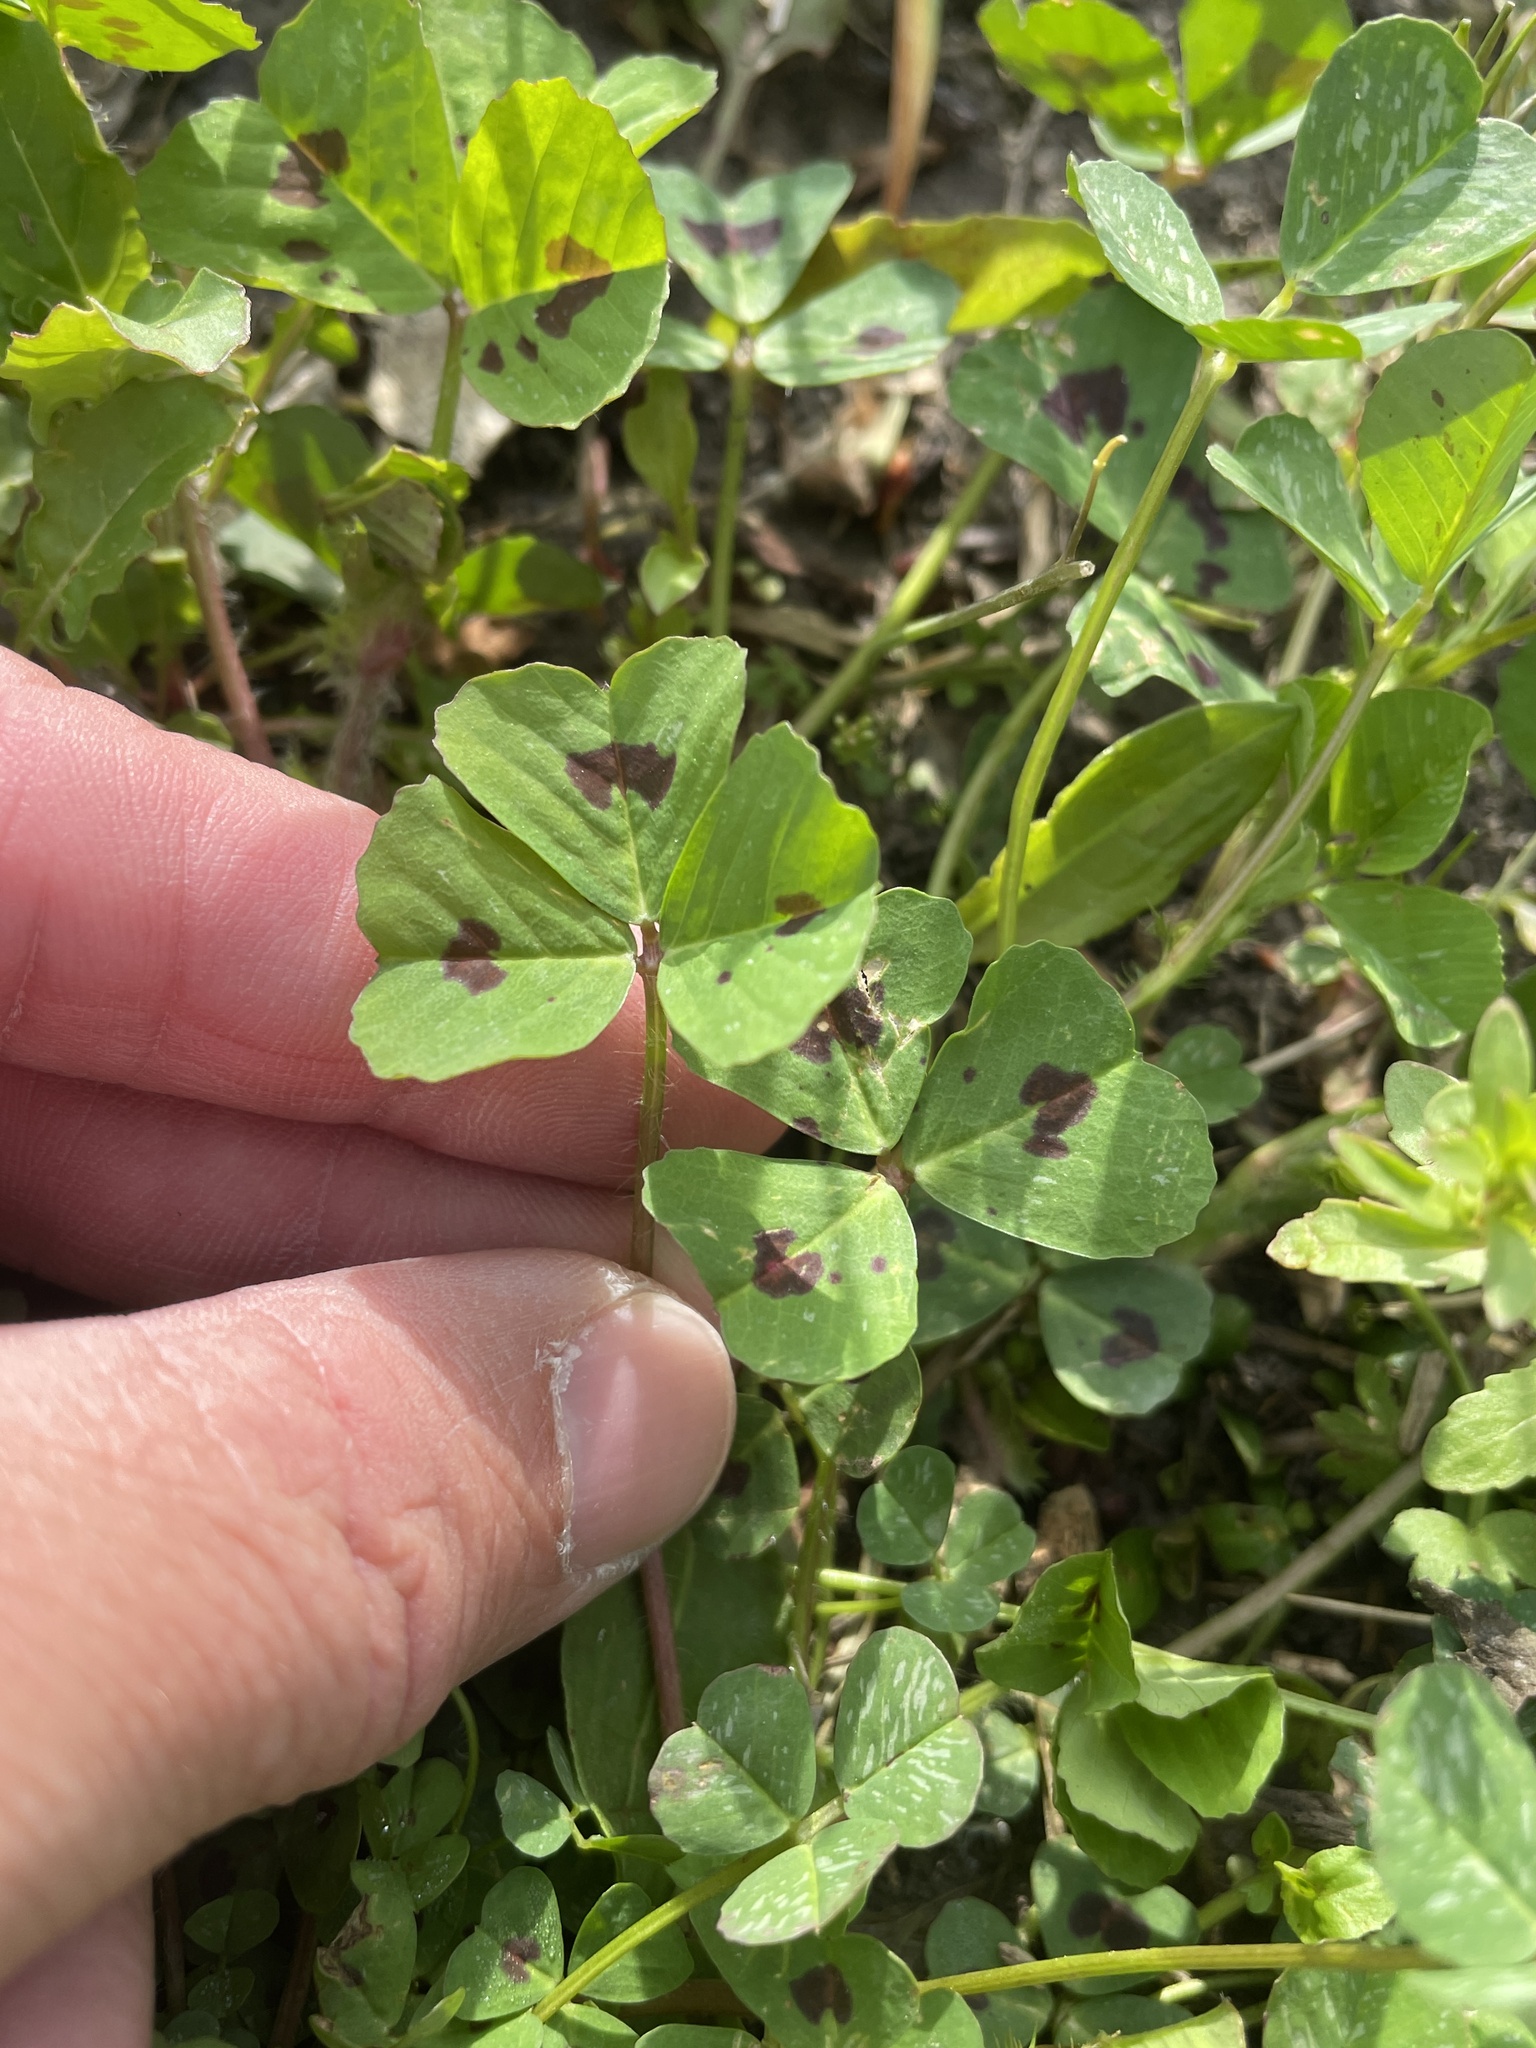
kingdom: Plantae
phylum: Tracheophyta
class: Magnoliopsida
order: Fabales
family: Fabaceae
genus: Medicago
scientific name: Medicago arabica
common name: Spotted medick
